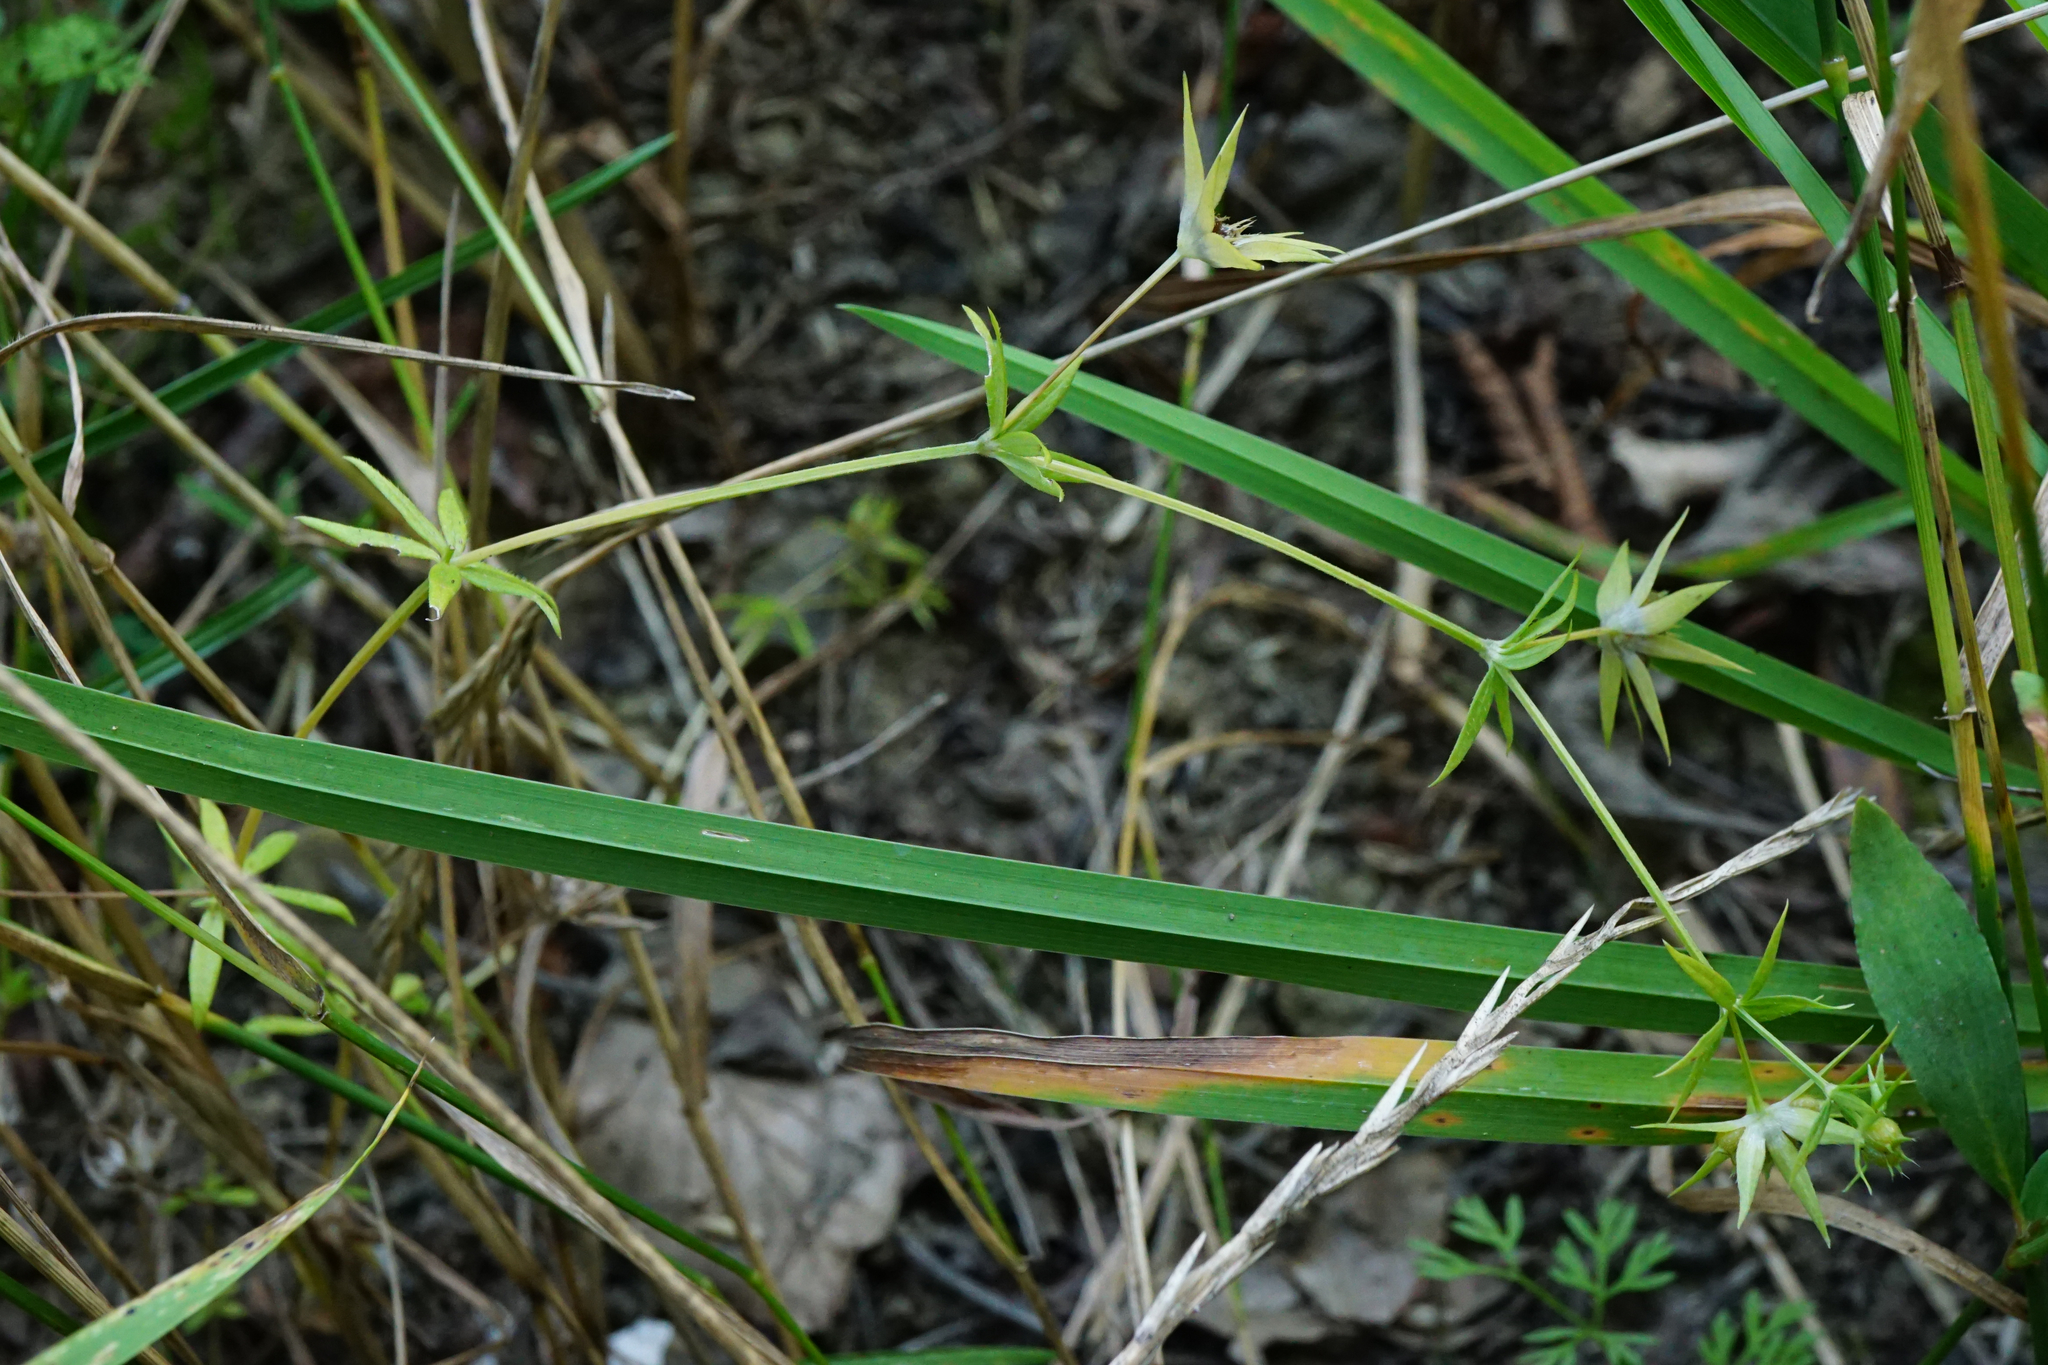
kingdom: Plantae
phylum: Tracheophyta
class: Magnoliopsida
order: Gentianales
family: Rubiaceae
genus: Sherardia
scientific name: Sherardia arvensis
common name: Field madder
